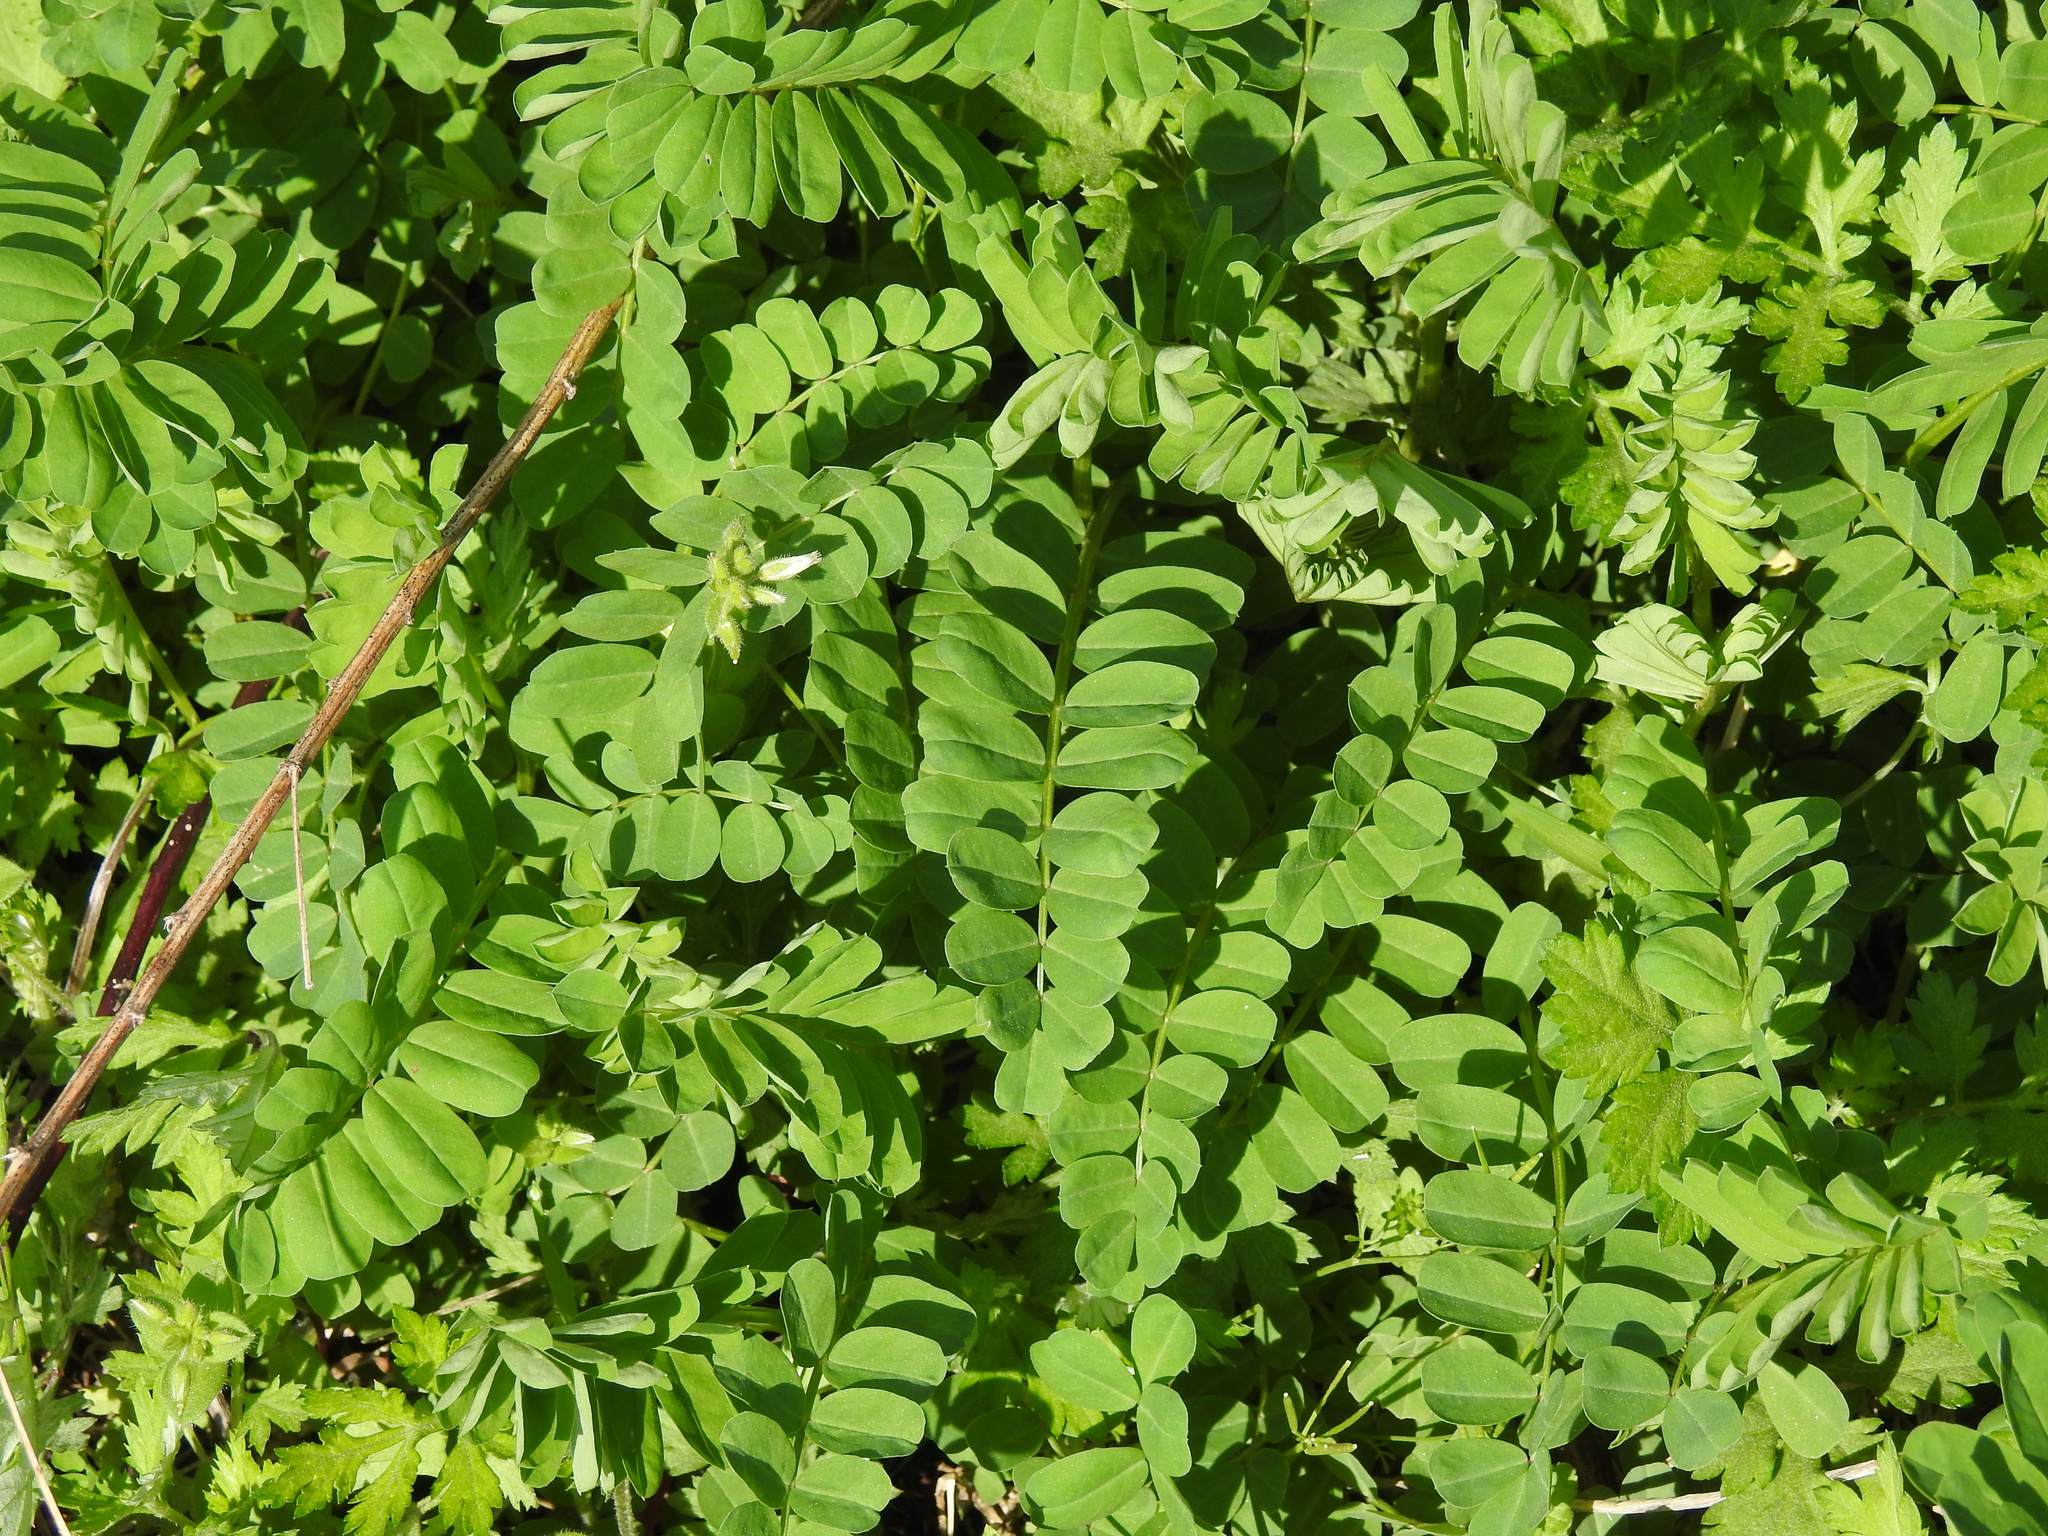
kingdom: Plantae
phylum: Tracheophyta
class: Magnoliopsida
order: Fabales
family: Fabaceae
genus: Coronilla
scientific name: Coronilla varia
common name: Crownvetch
